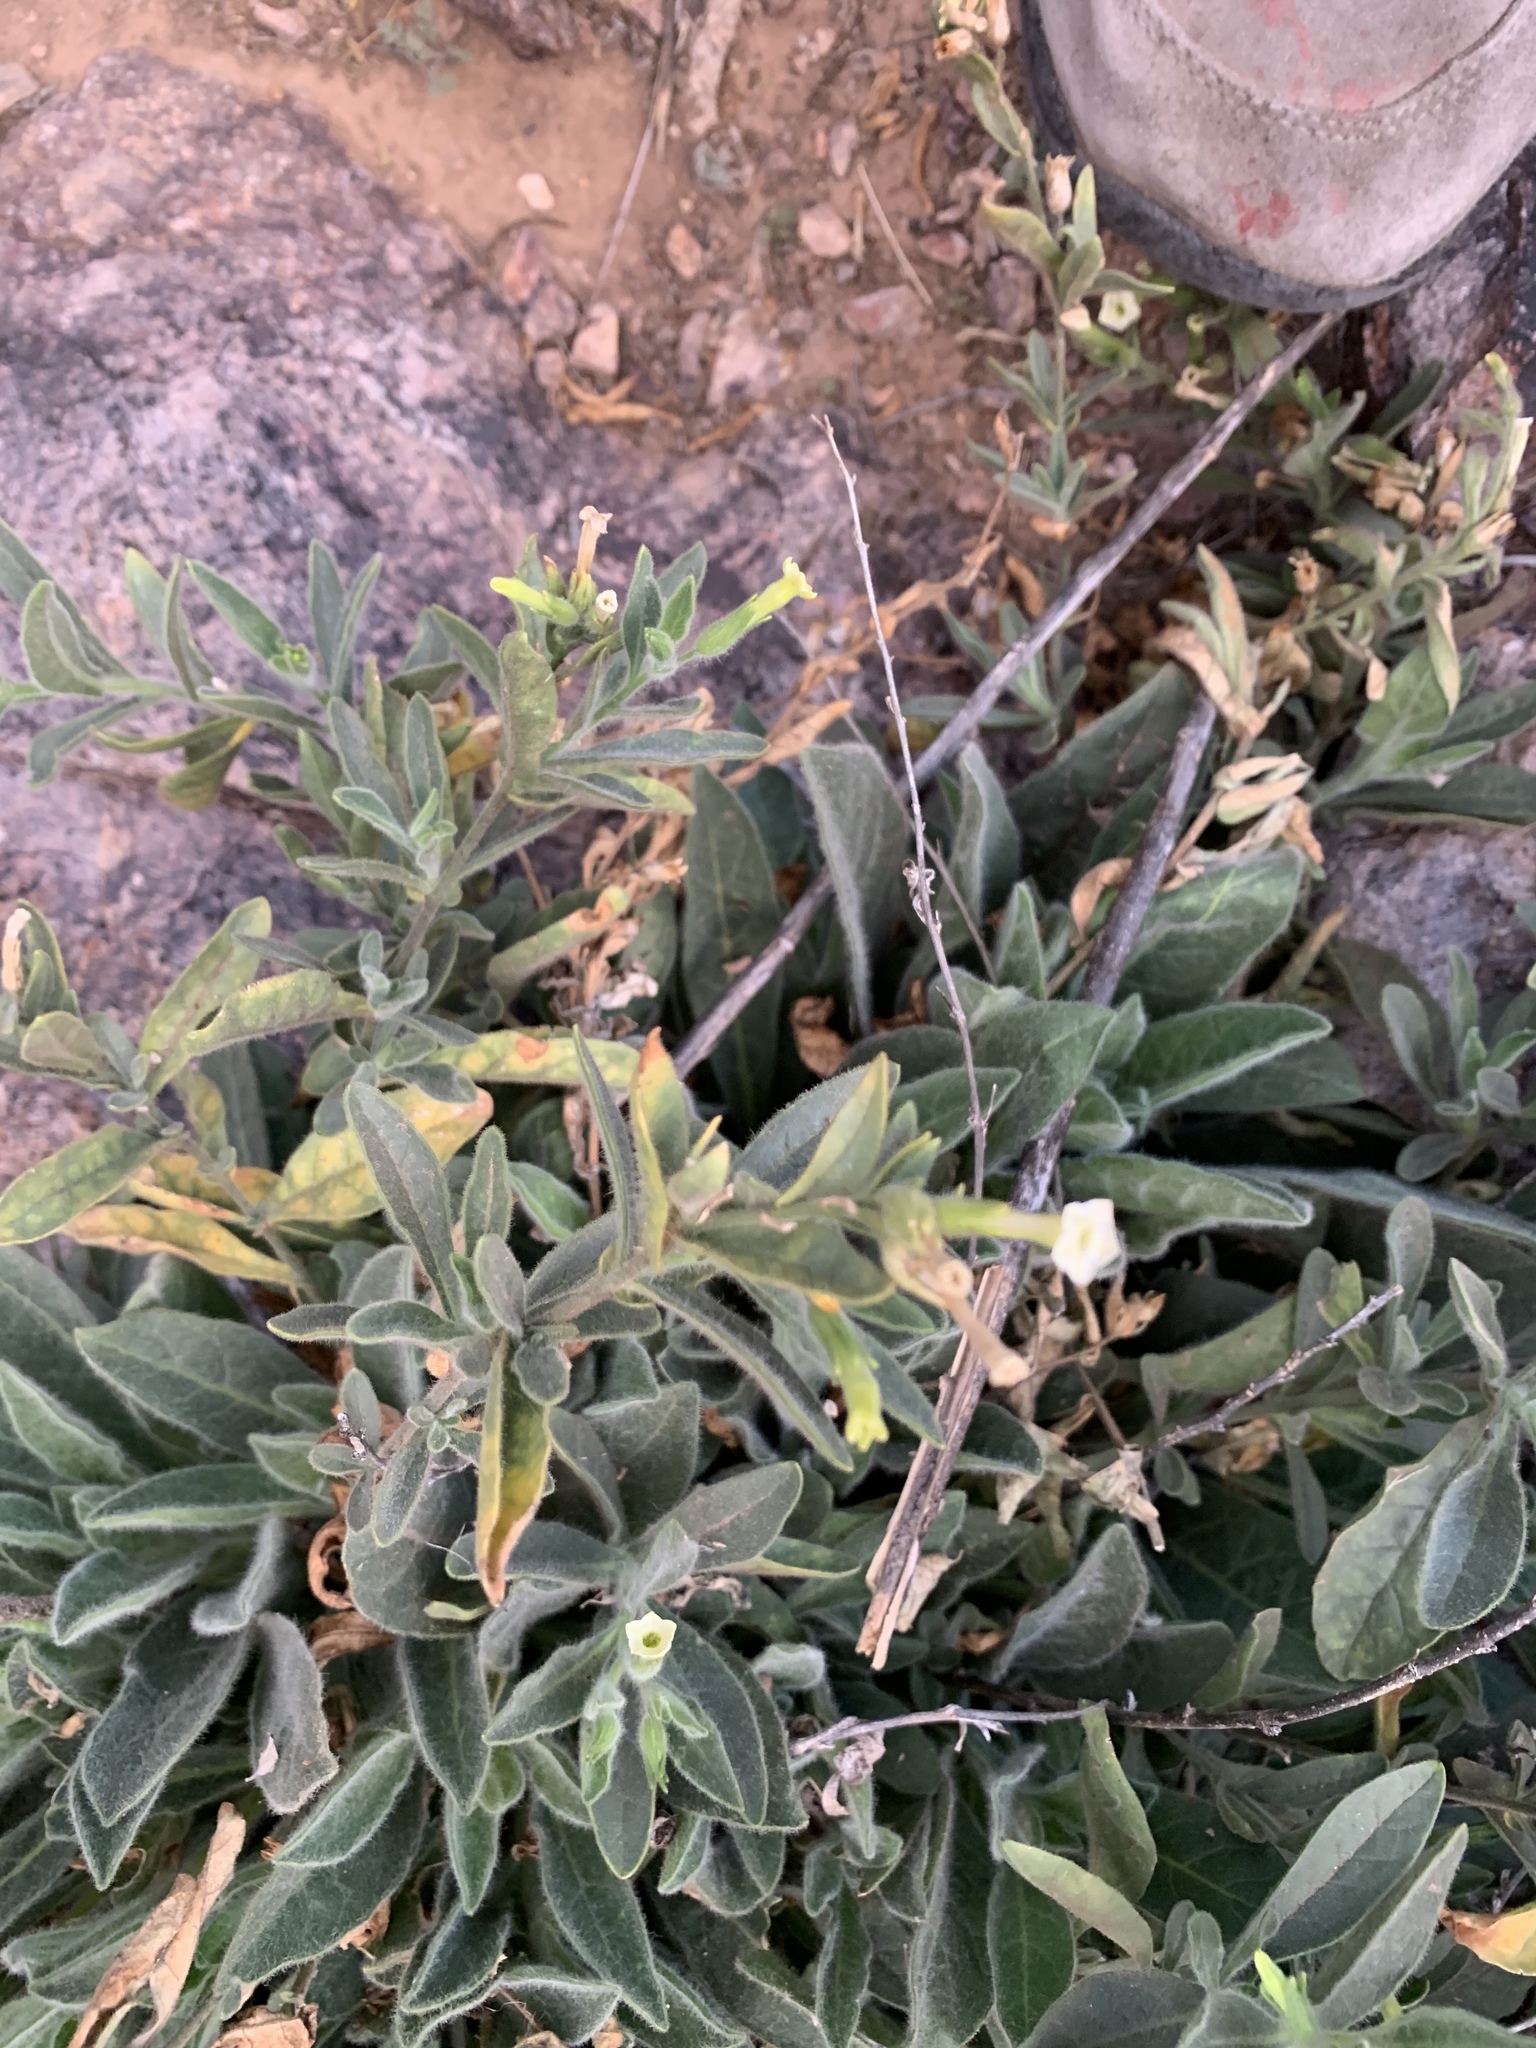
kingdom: Plantae
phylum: Tracheophyta
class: Magnoliopsida
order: Solanales
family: Solanaceae
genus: Nicotiana
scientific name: Nicotiana obtusifolia
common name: Desert tobacco
